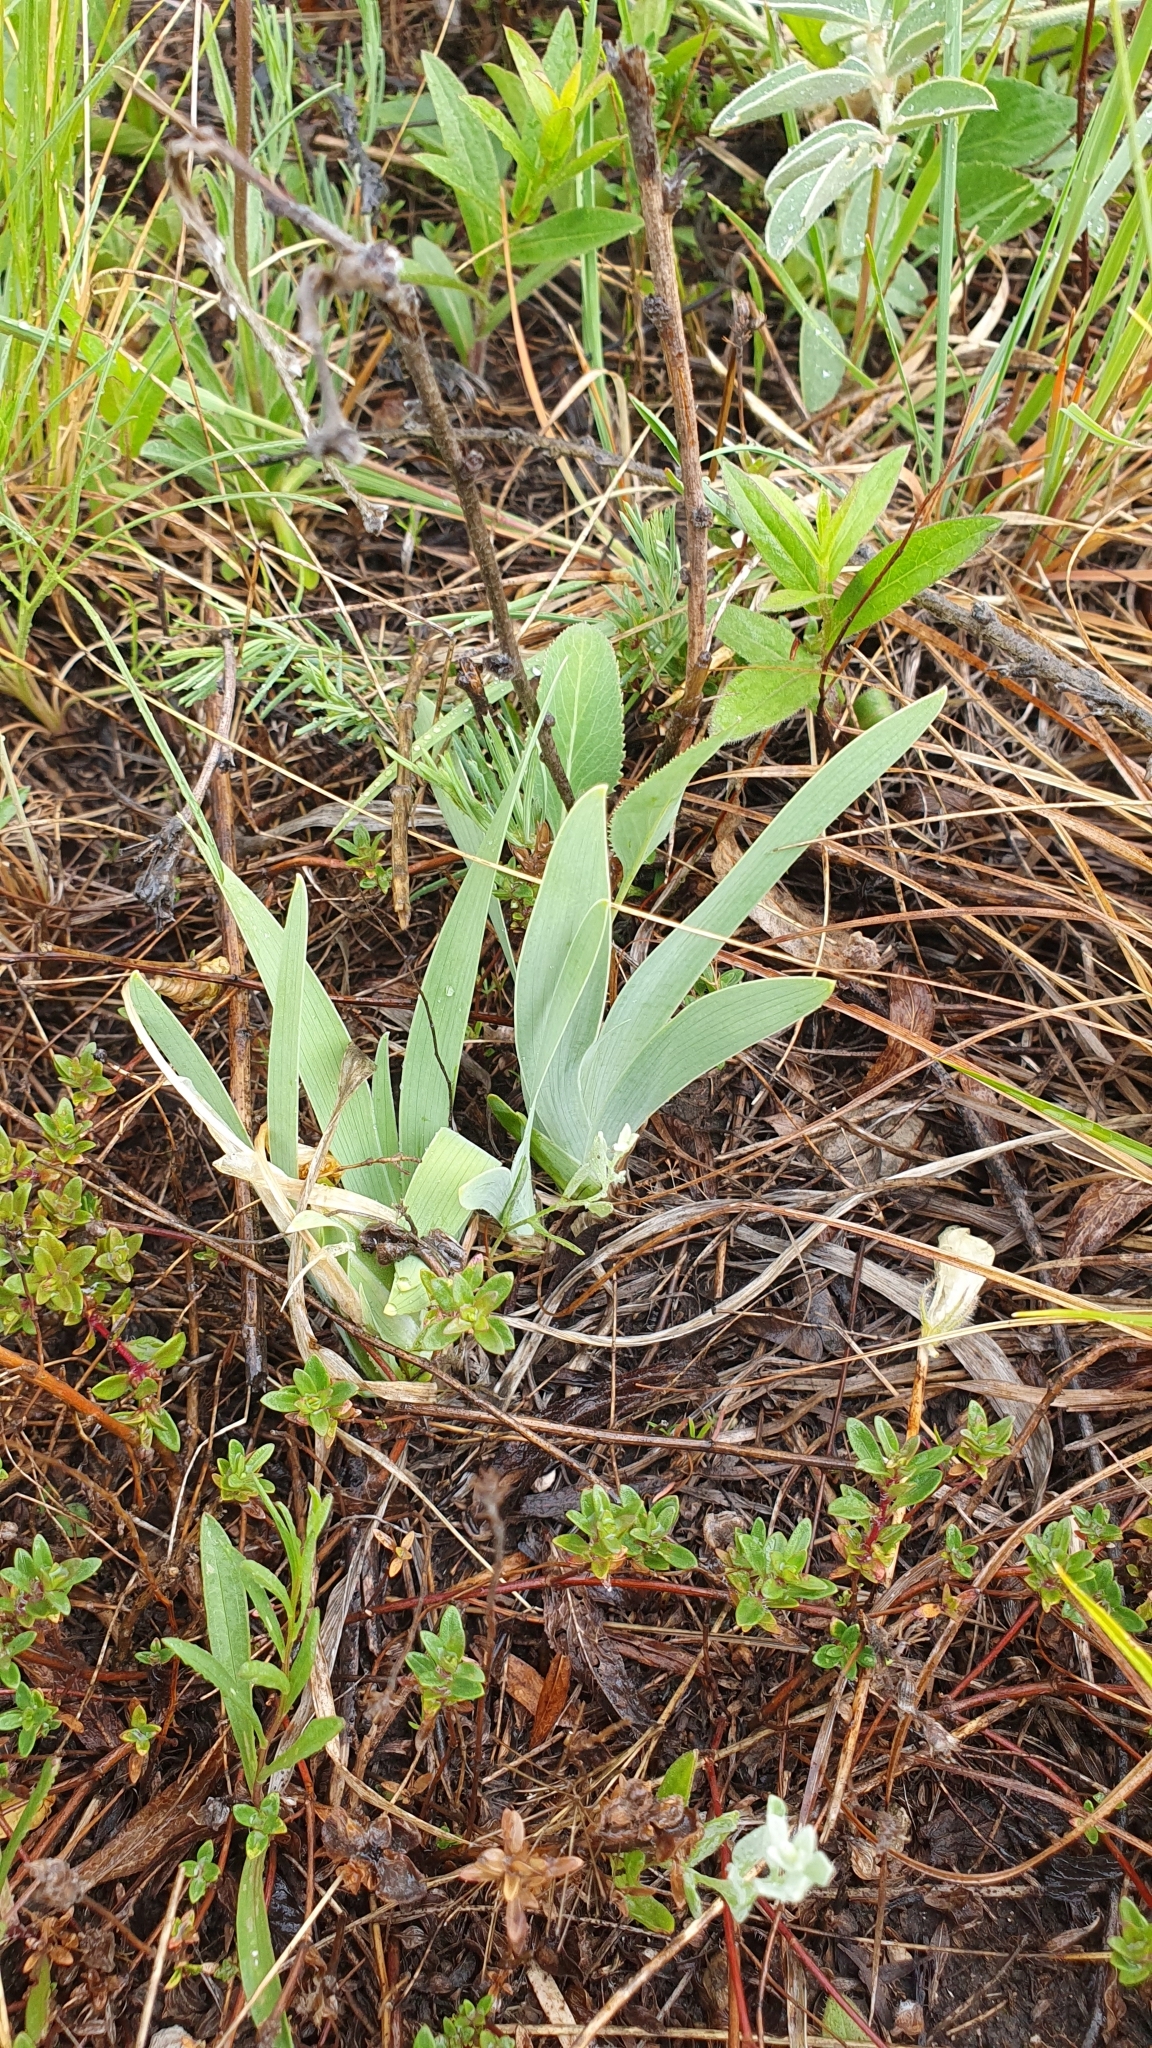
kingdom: Plantae
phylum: Tracheophyta
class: Liliopsida
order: Asparagales
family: Iridaceae
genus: Iris
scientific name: Iris pumila
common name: Dwarf iris
